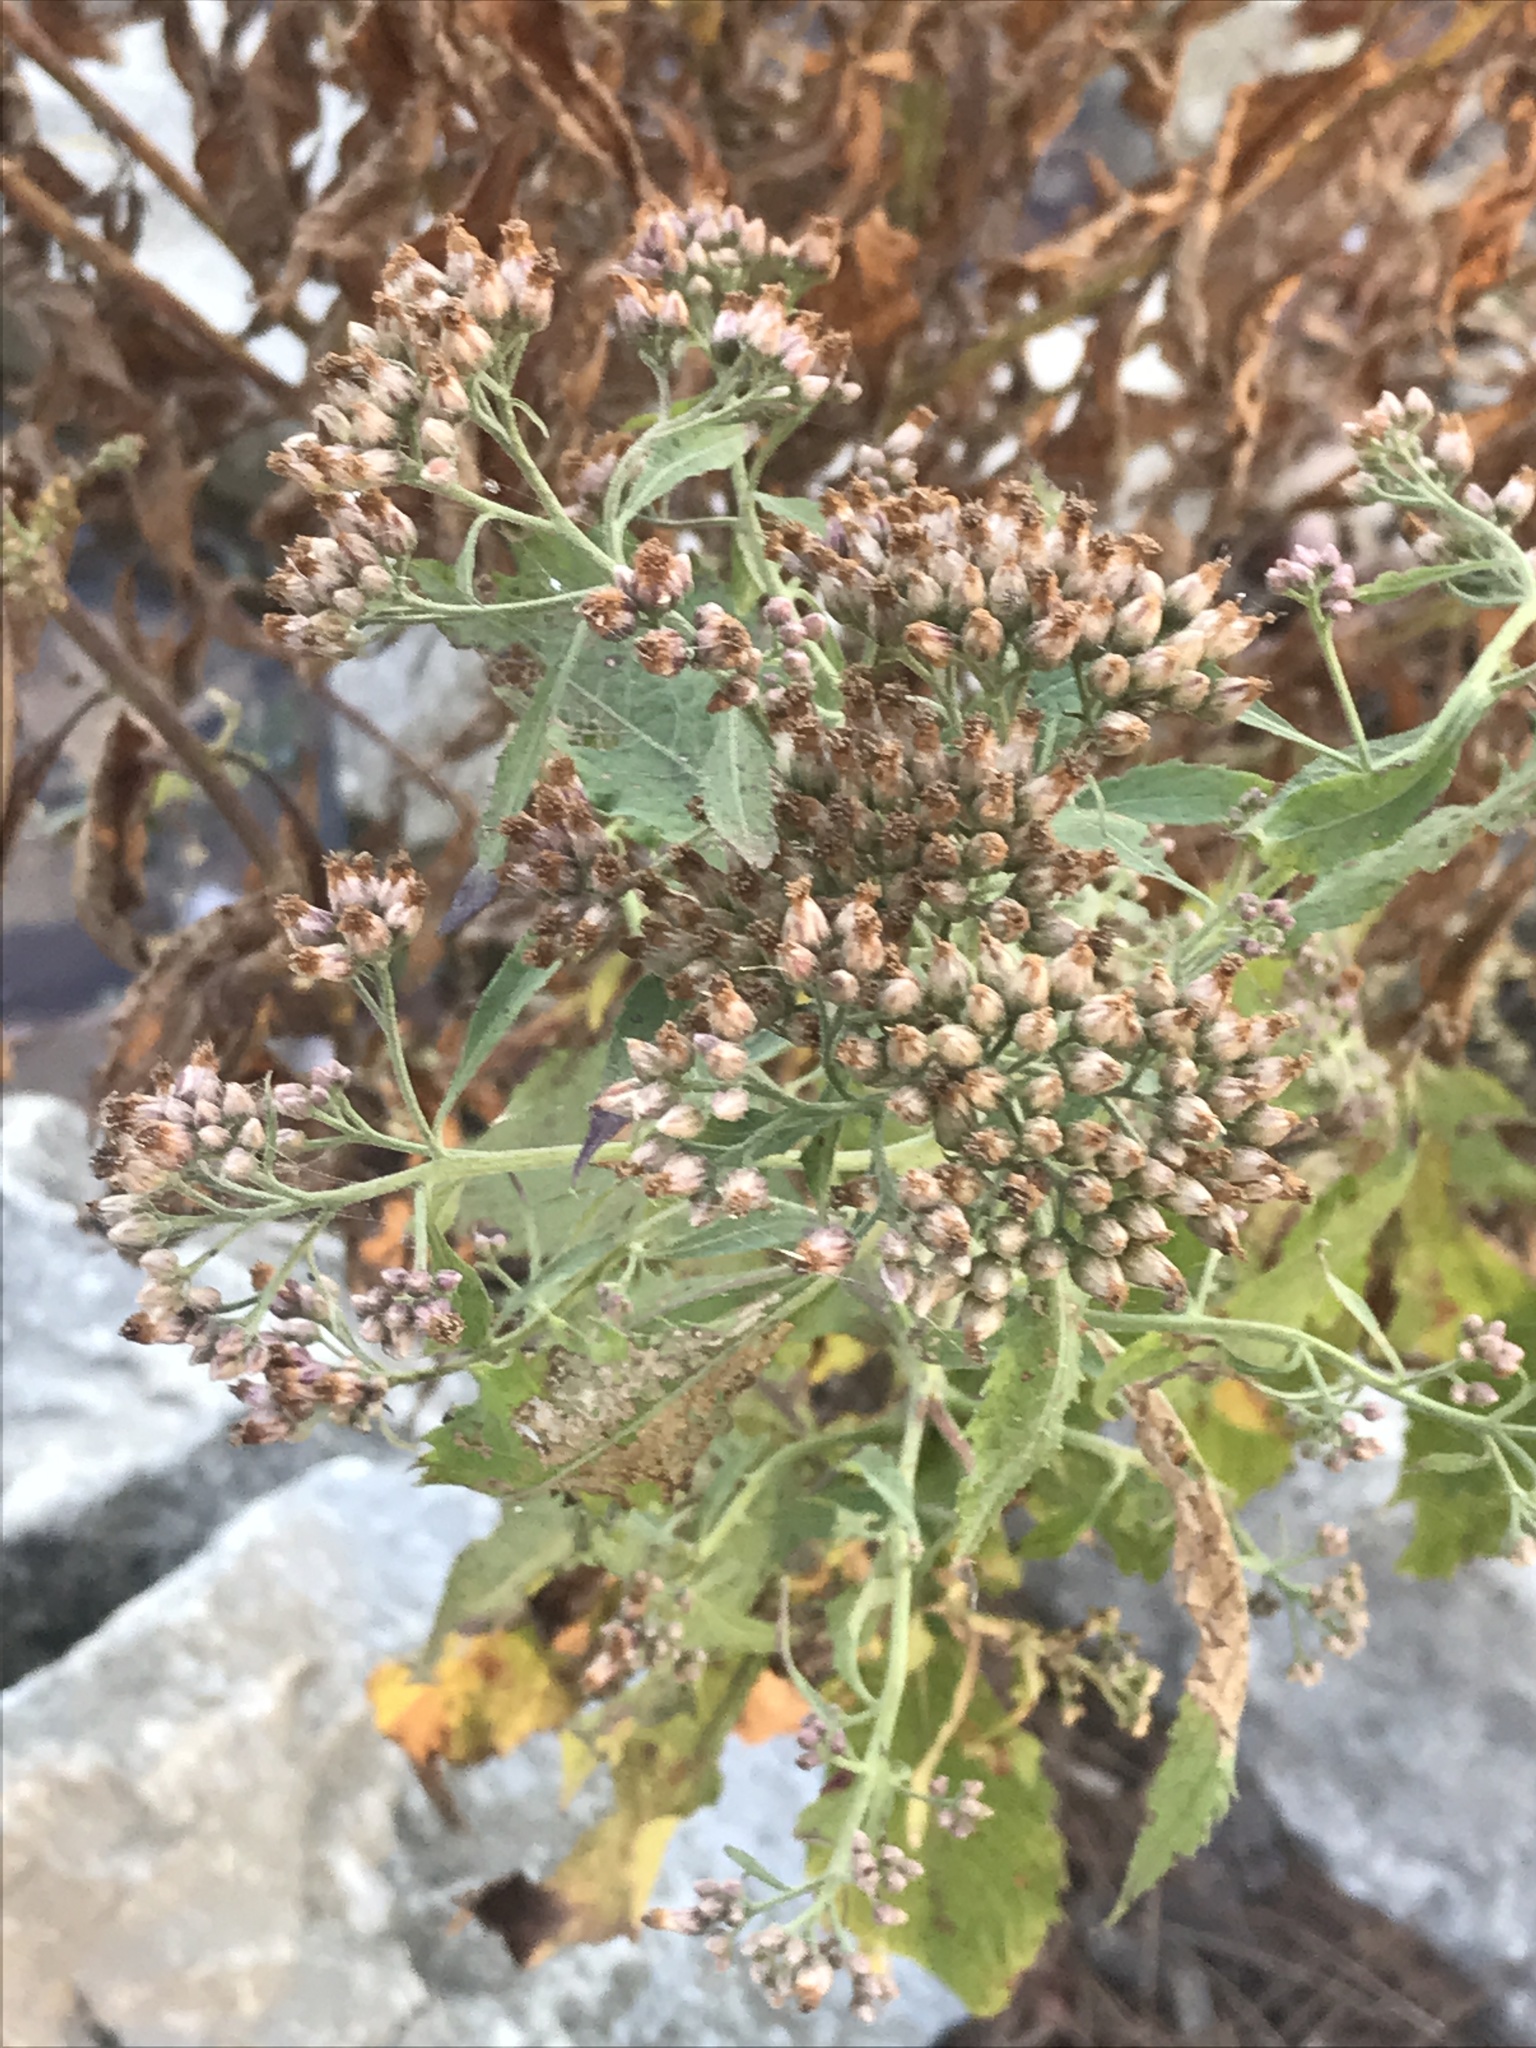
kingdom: Plantae
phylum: Tracheophyta
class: Magnoliopsida
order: Asterales
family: Asteraceae
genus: Pluchea
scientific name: Pluchea camphorata
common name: Camphor pluchea
